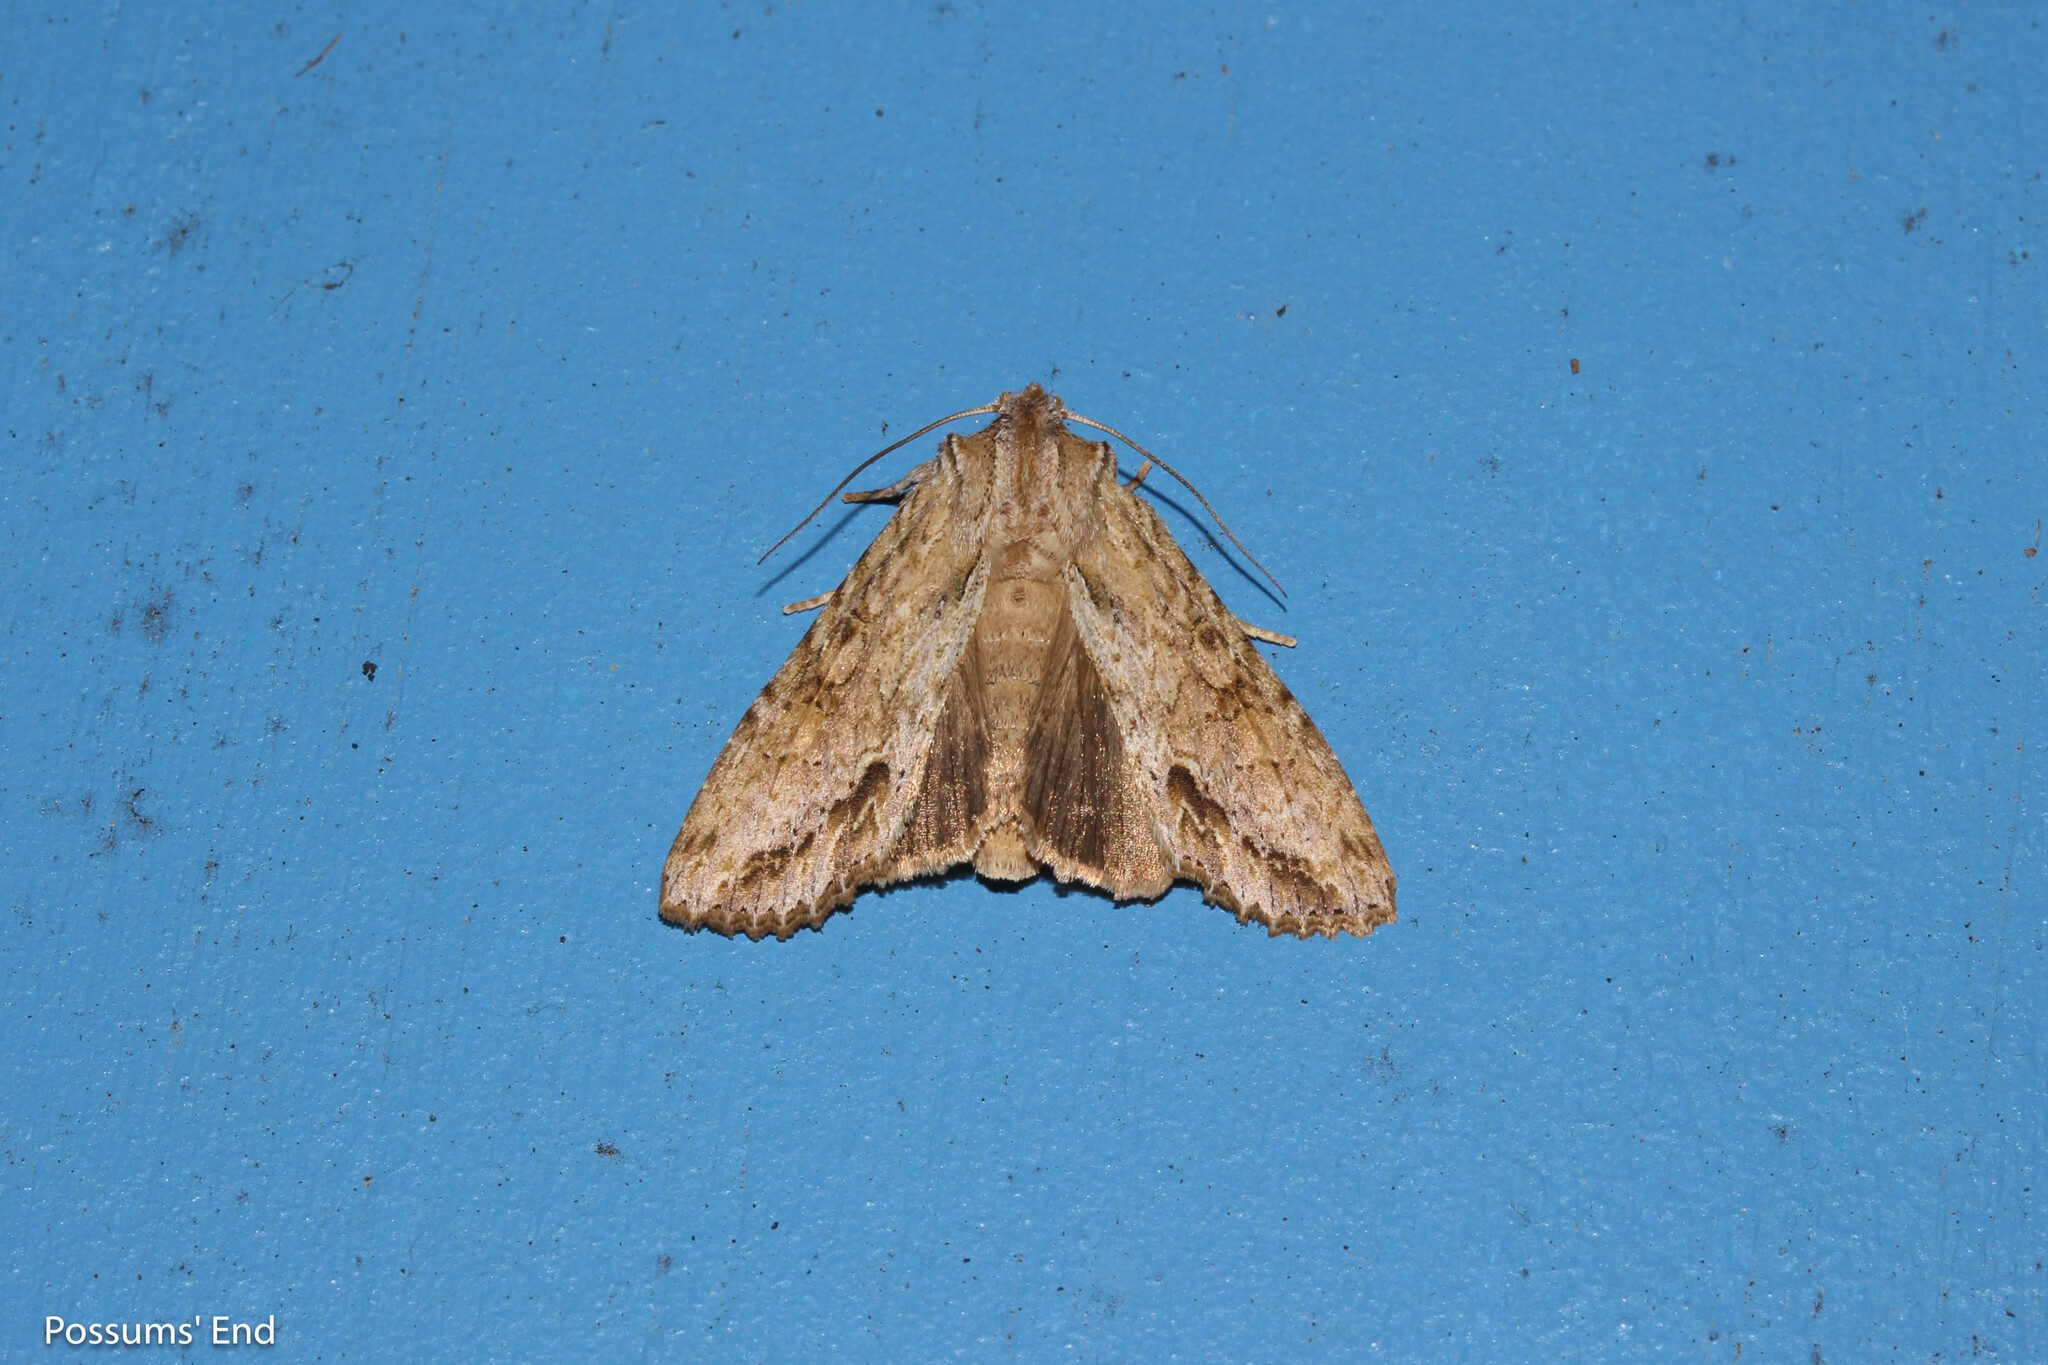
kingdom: Animalia
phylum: Arthropoda
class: Insecta
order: Lepidoptera
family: Noctuidae
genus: Ichneutica
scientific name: Ichneutica mollis
